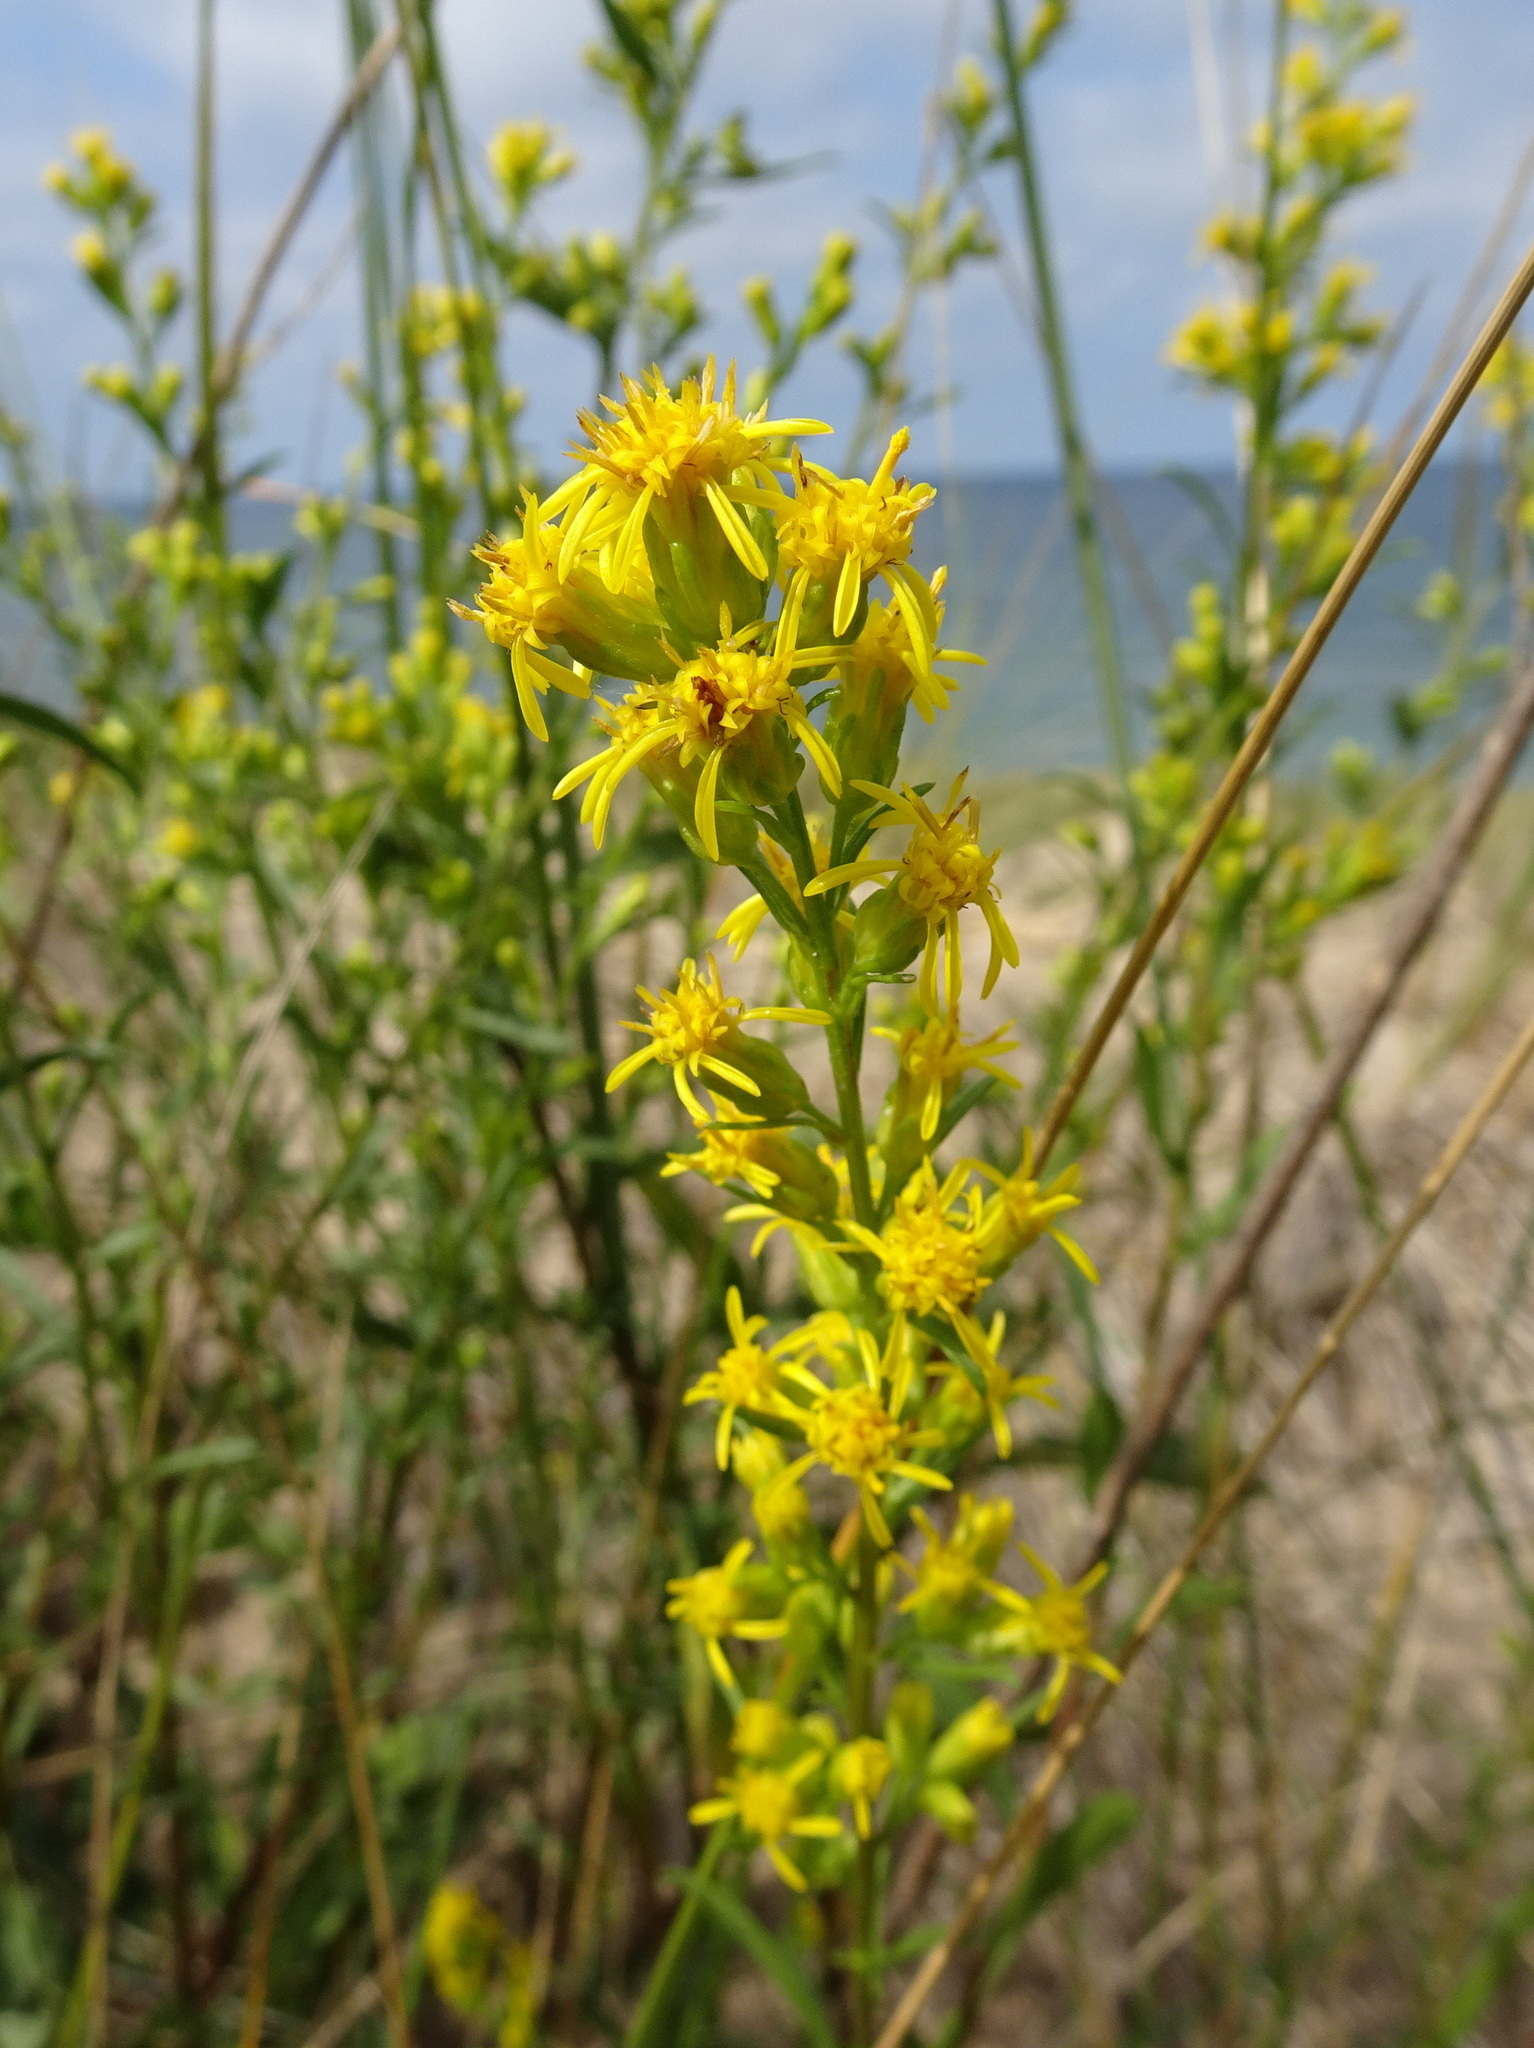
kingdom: Plantae
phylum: Tracheophyta
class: Magnoliopsida
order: Asterales
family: Asteraceae
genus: Solidago
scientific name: Solidago gillmanii
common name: Gillman's goldenrod
